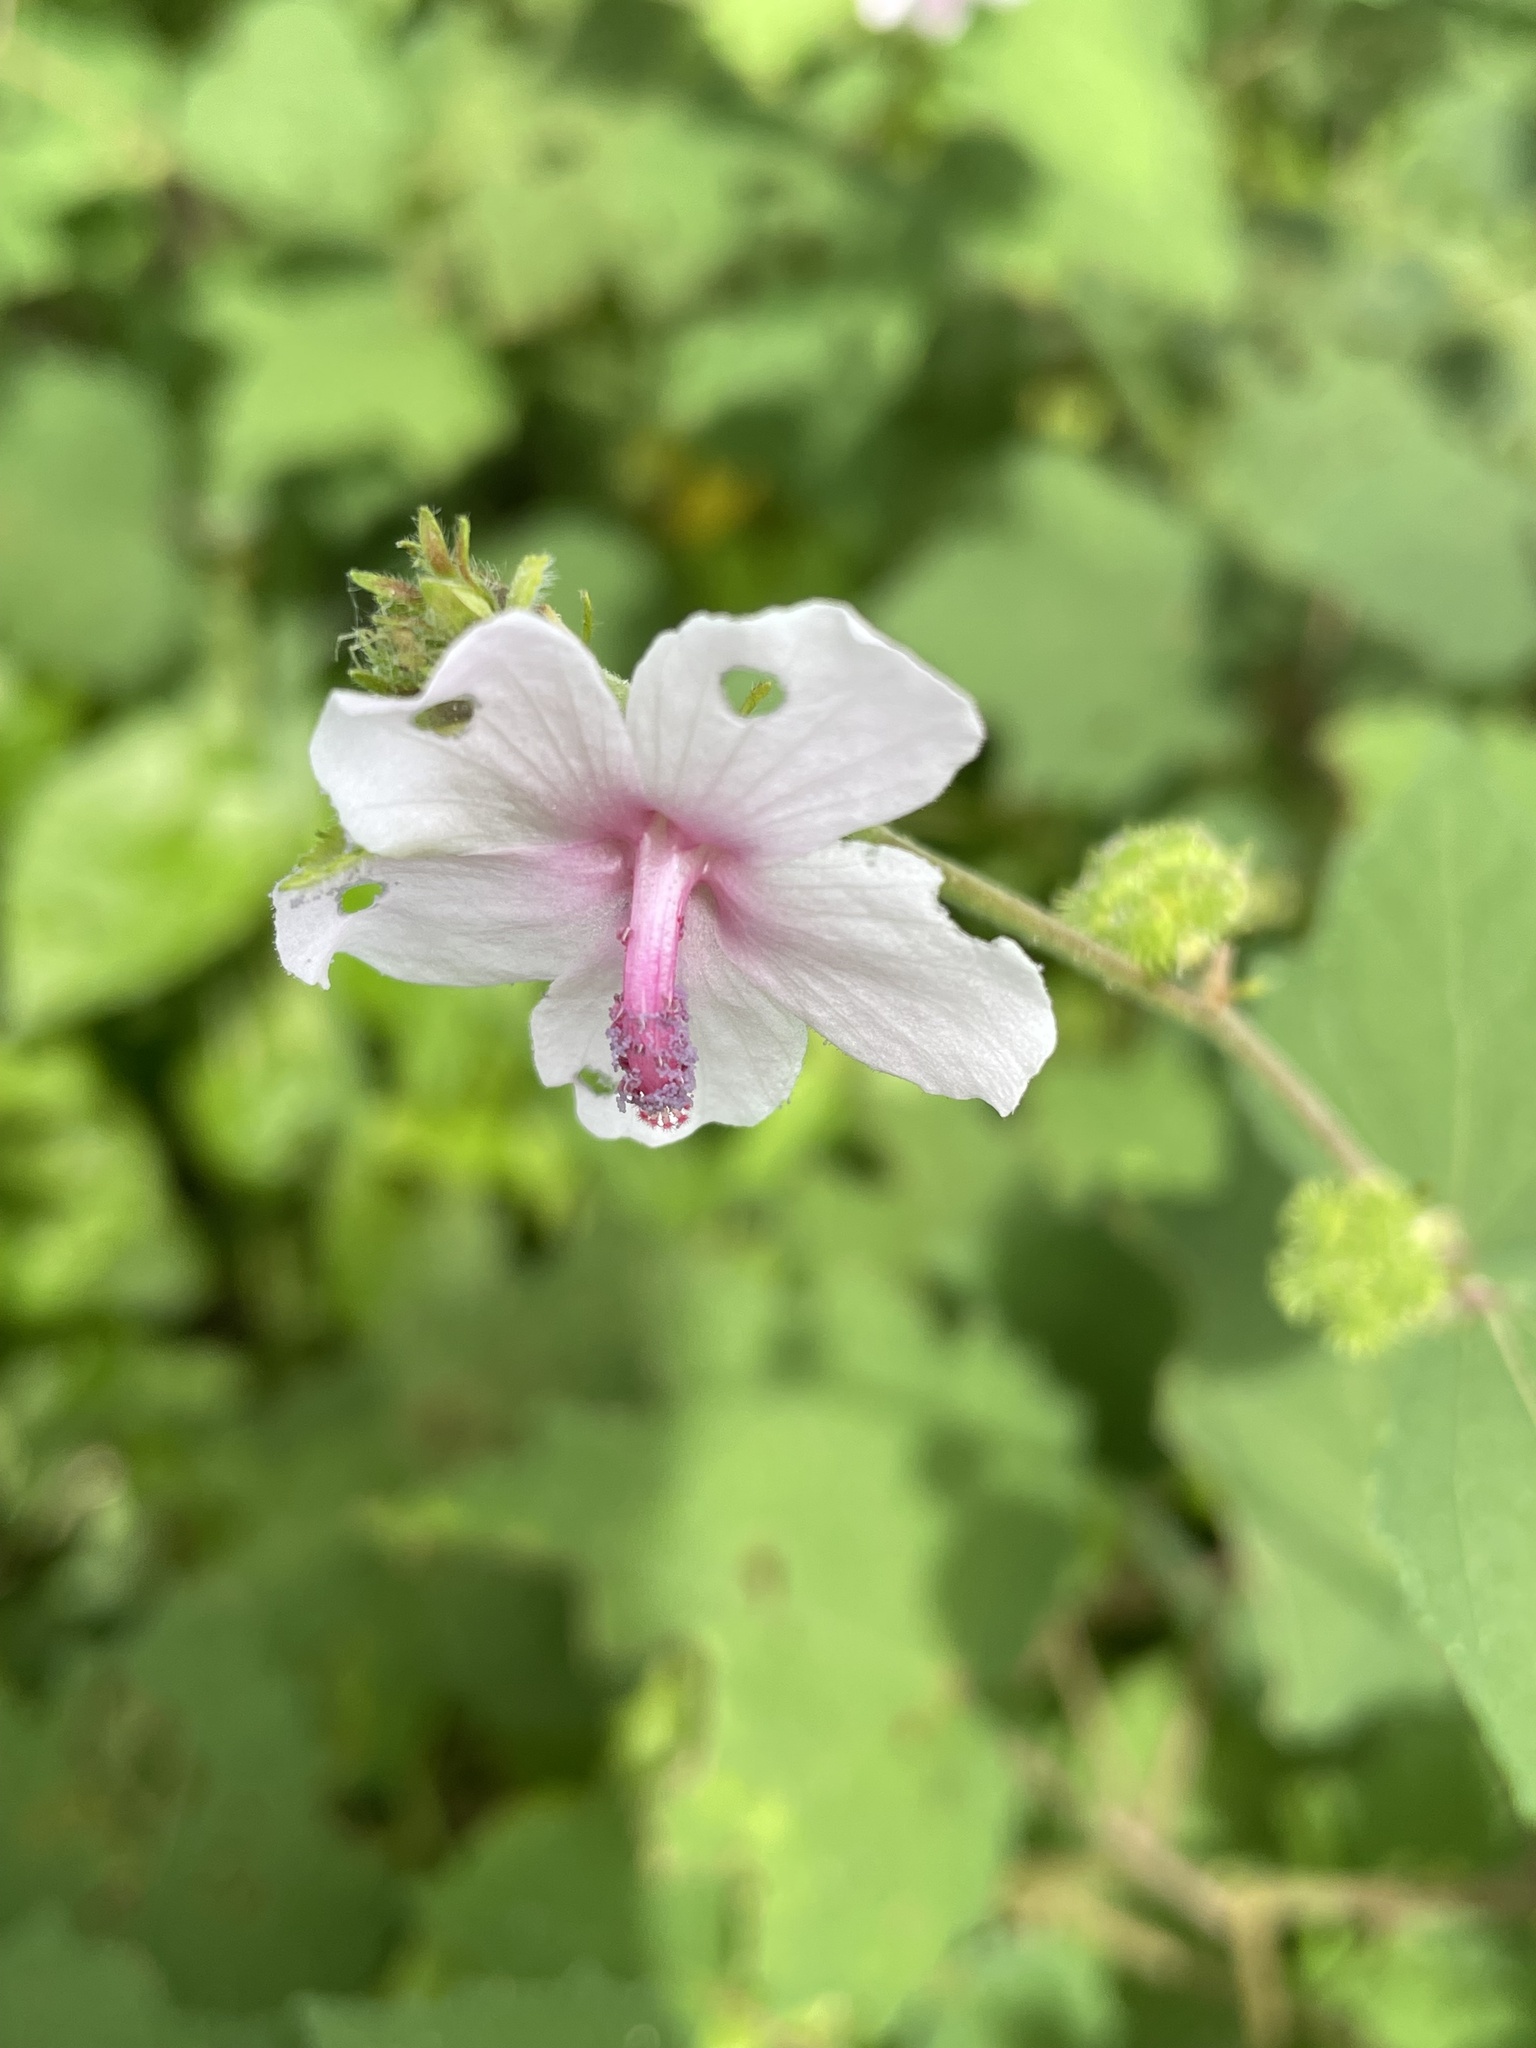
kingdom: Plantae
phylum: Tracheophyta
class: Magnoliopsida
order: Malvales
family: Malvaceae
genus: Urena
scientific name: Urena lobata
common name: Caesarweed
